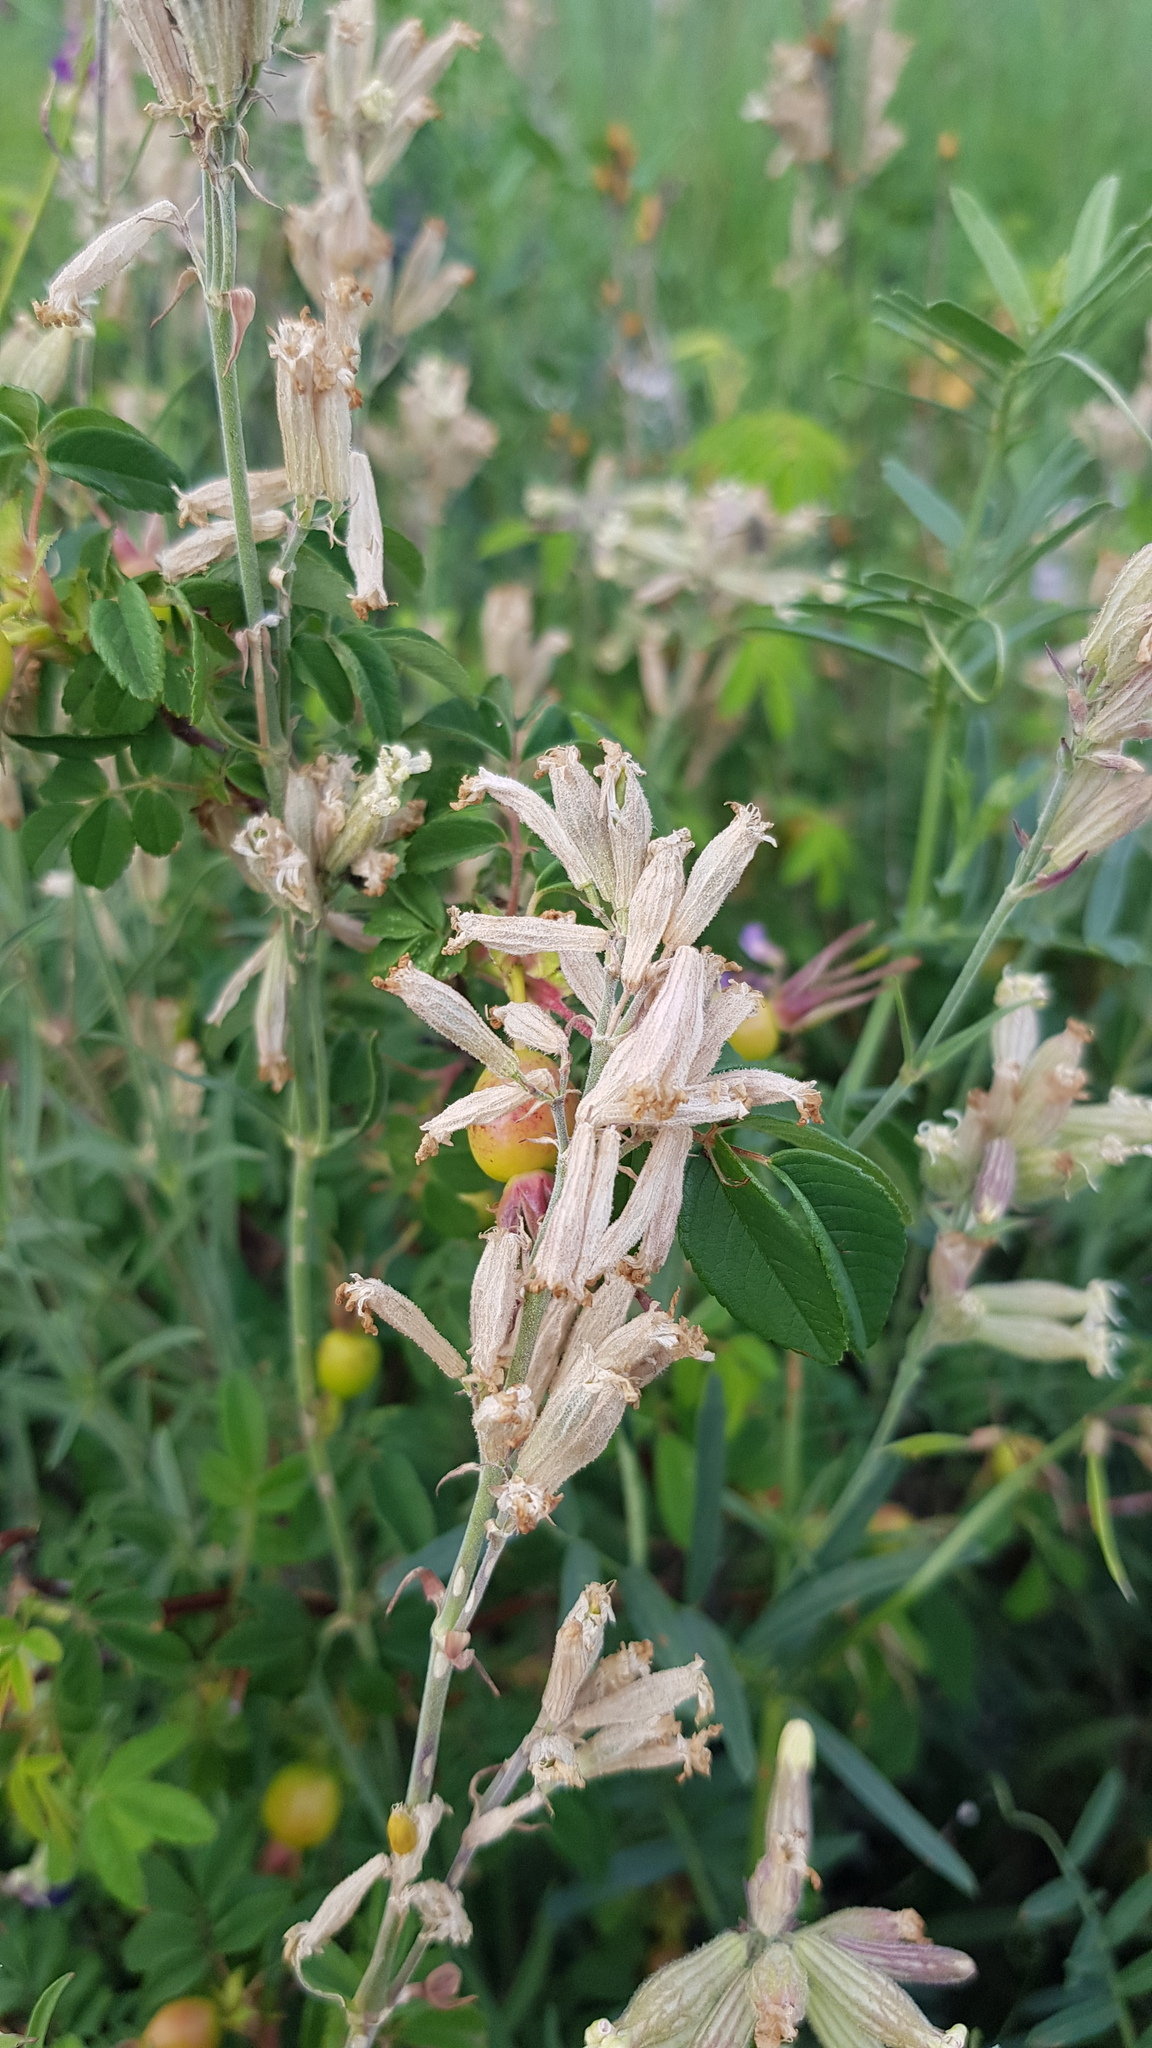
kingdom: Plantae
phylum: Tracheophyta
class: Magnoliopsida
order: Caryophyllales
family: Caryophyllaceae
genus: Silene
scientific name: Silene amoena
